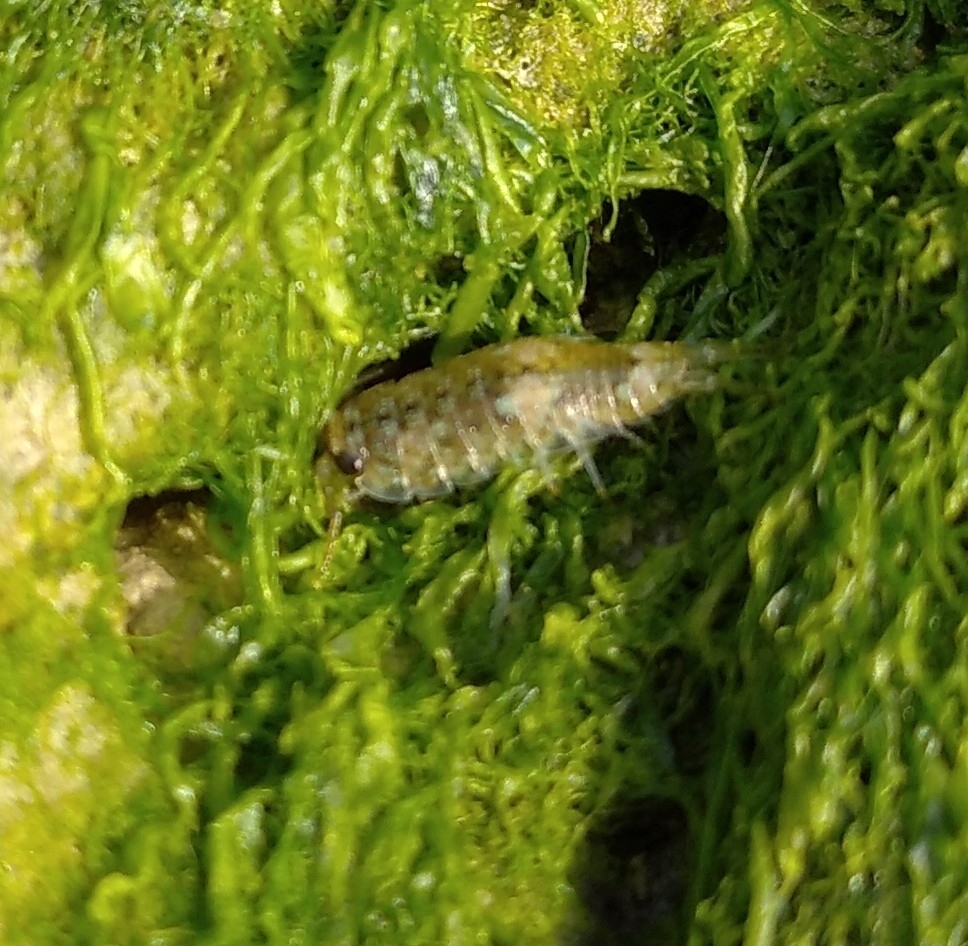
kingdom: Animalia
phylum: Arthropoda
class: Malacostraca
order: Isopoda
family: Ligiidae
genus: Ligia
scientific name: Ligia oceanica
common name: Sea slater
